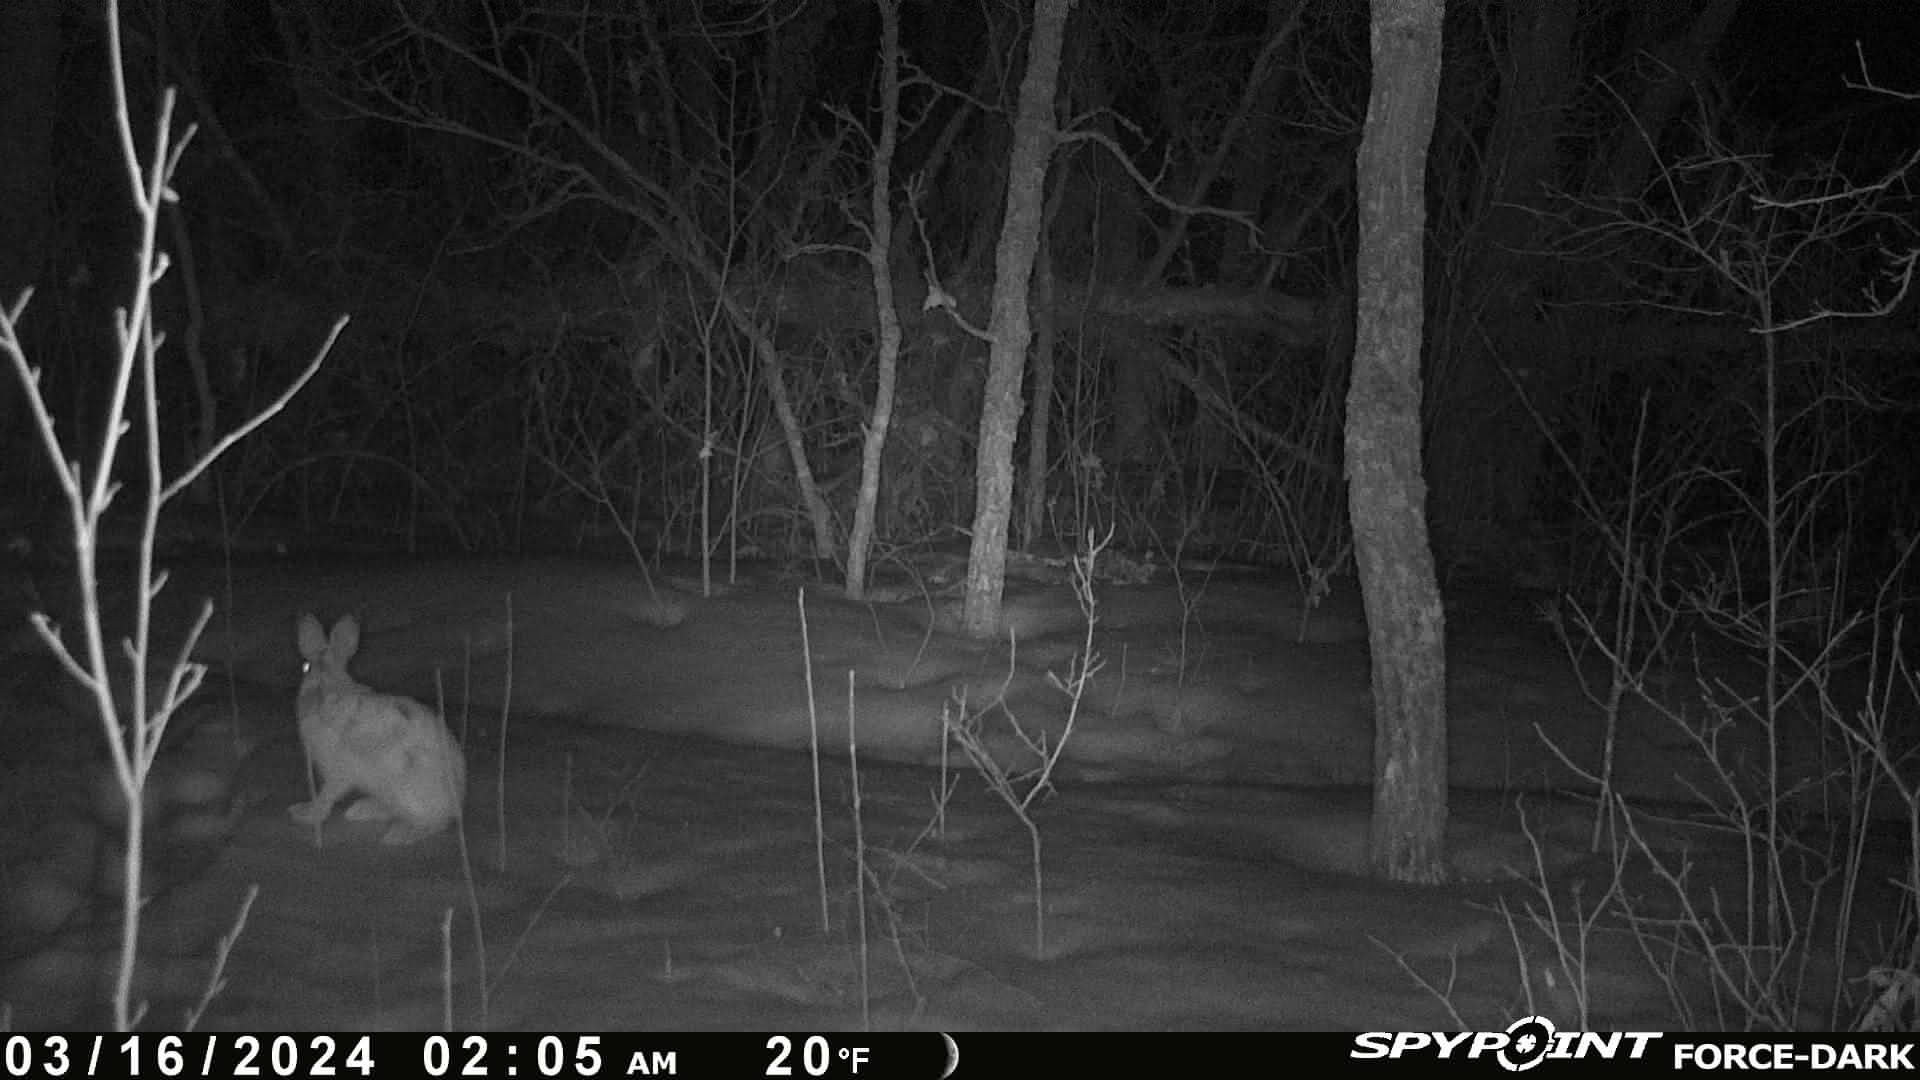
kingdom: Animalia
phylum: Chordata
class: Mammalia
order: Lagomorpha
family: Leporidae
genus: Lepus
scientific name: Lepus americanus
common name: Snowshoe hare
